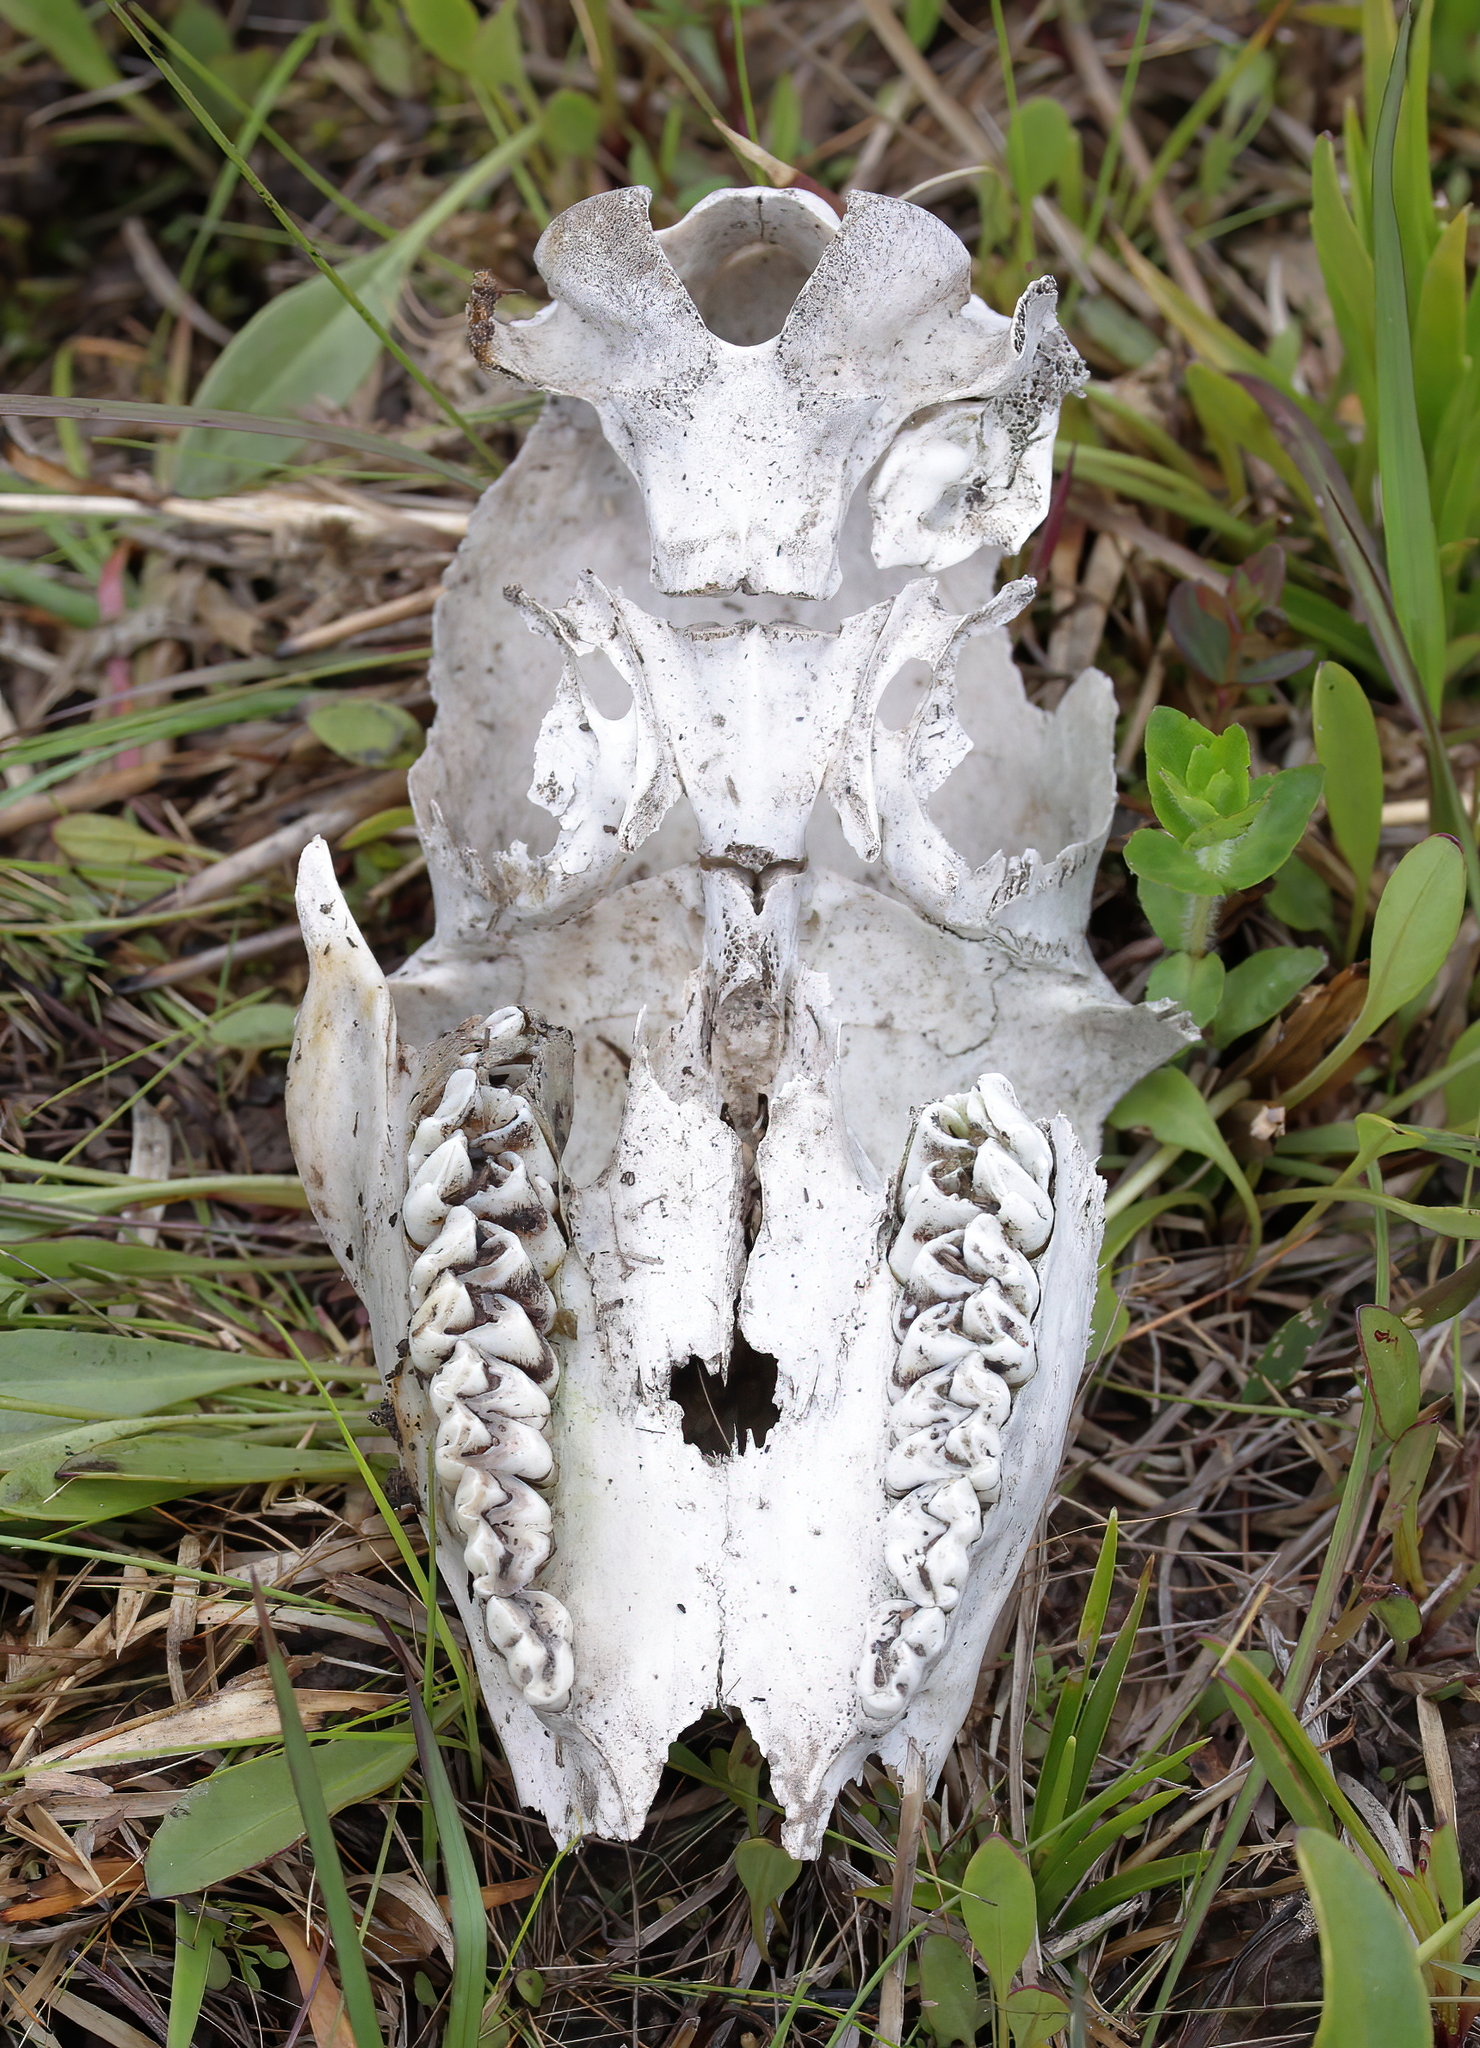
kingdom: Animalia
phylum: Chordata
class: Mammalia
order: Artiodactyla
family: Cervidae
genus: Odocoileus
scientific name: Odocoileus virginianus
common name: White-tailed deer
